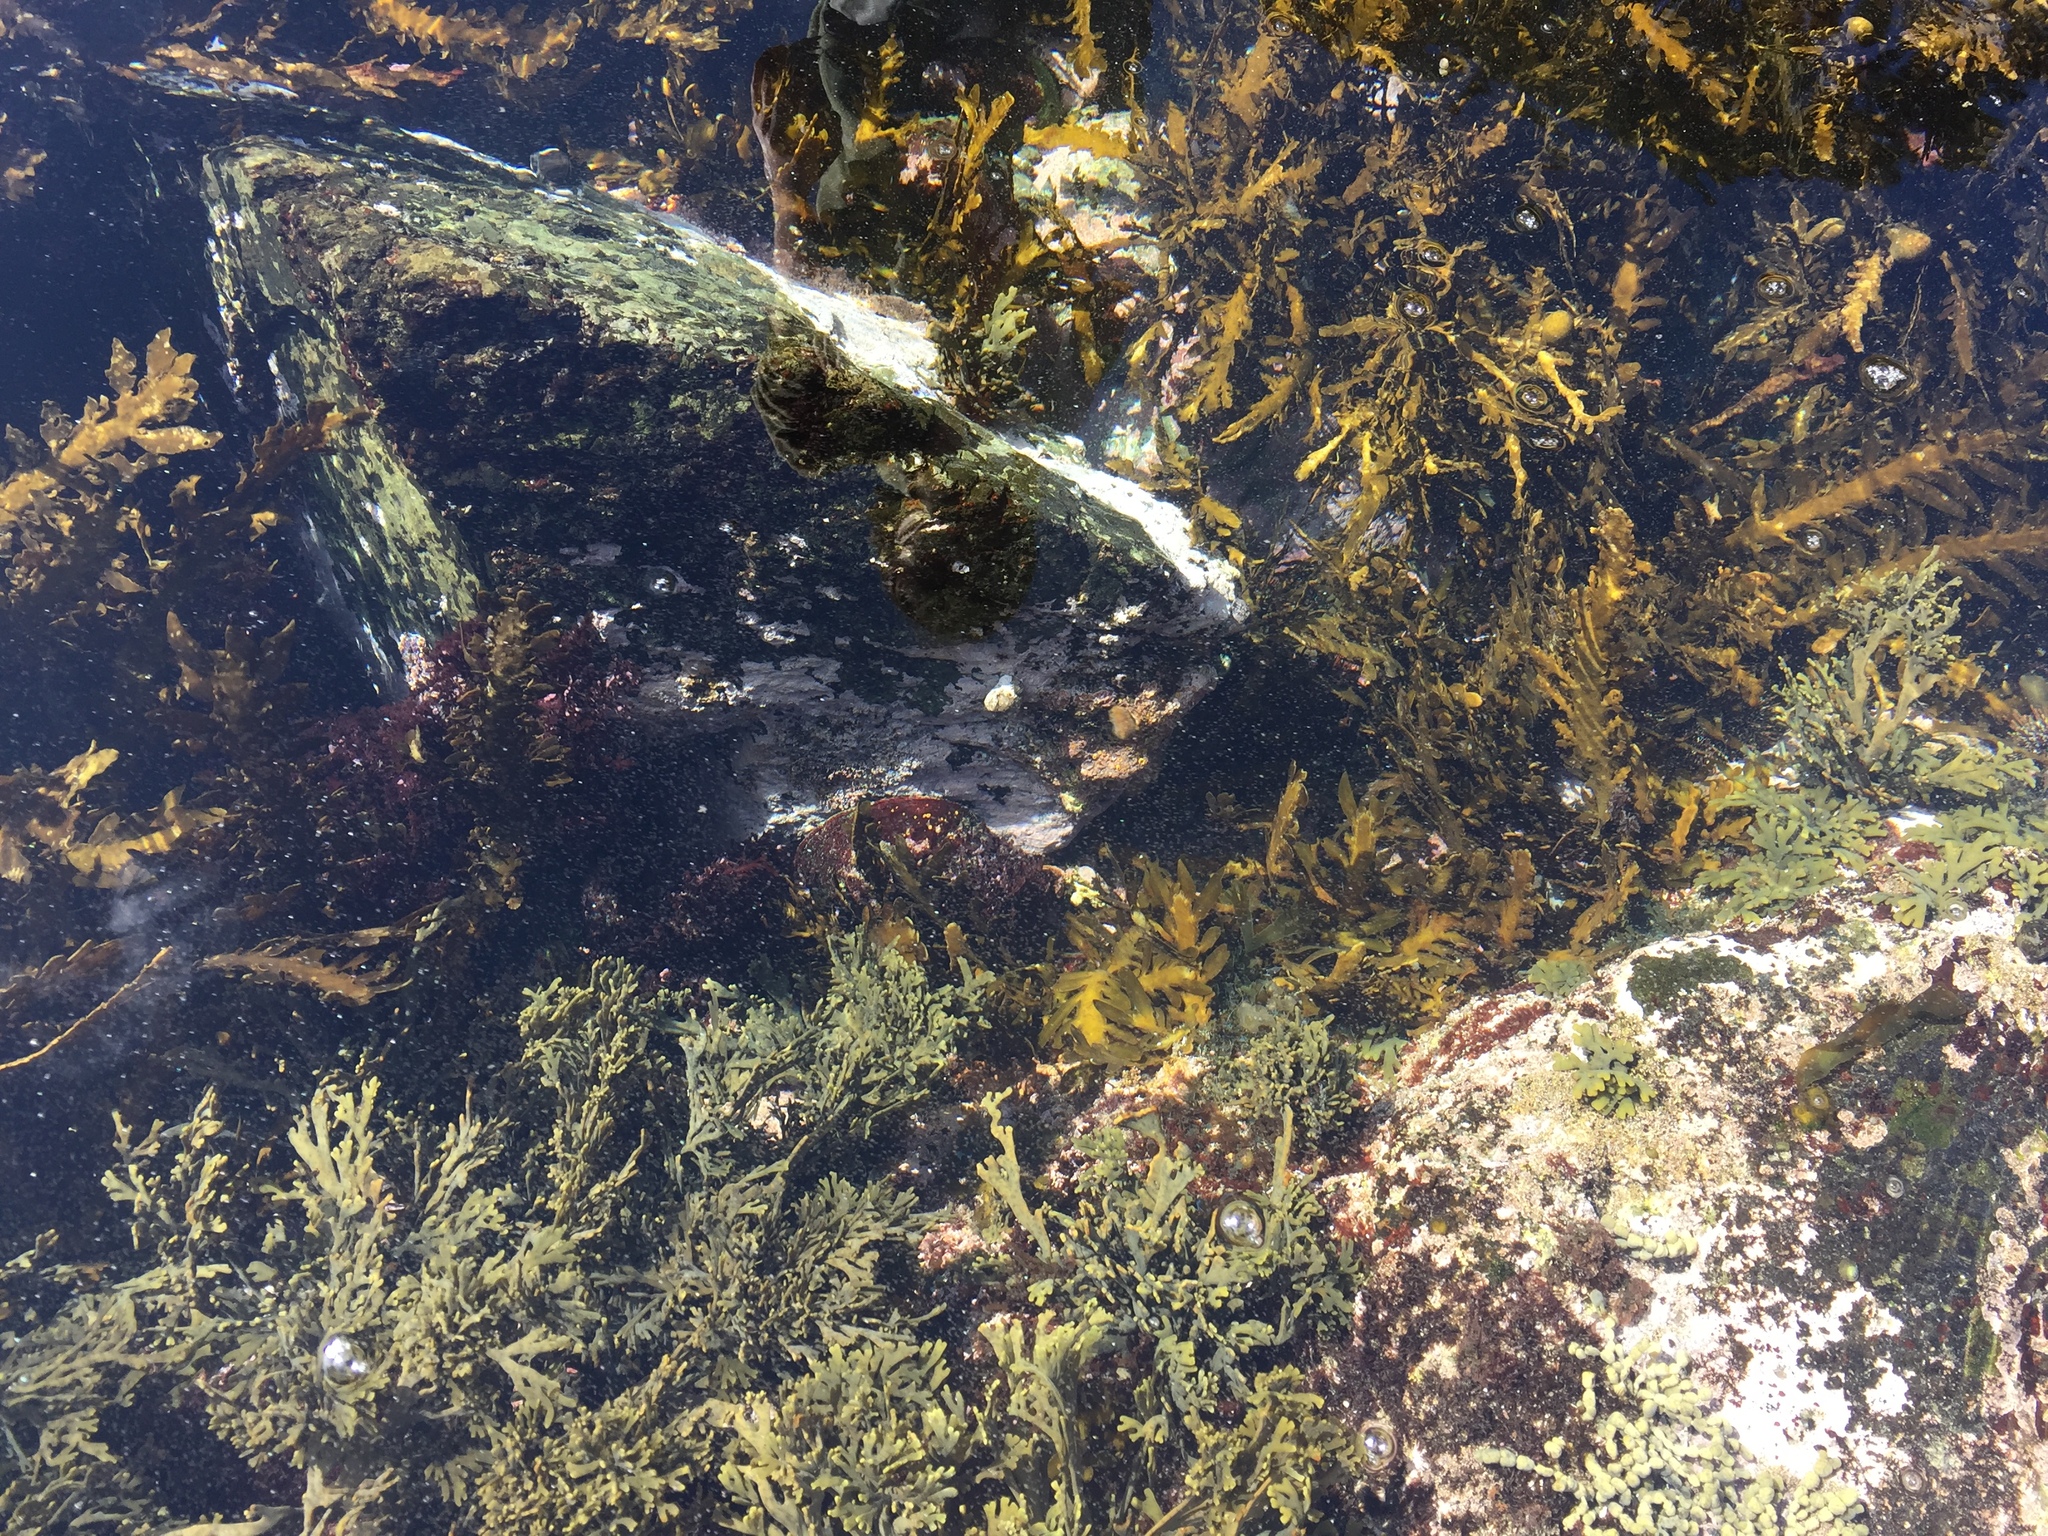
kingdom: Animalia
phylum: Mollusca
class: Gastropoda
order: Lepetellida
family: Haliotidae
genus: Haliotis
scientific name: Haliotis iris
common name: Abalone
